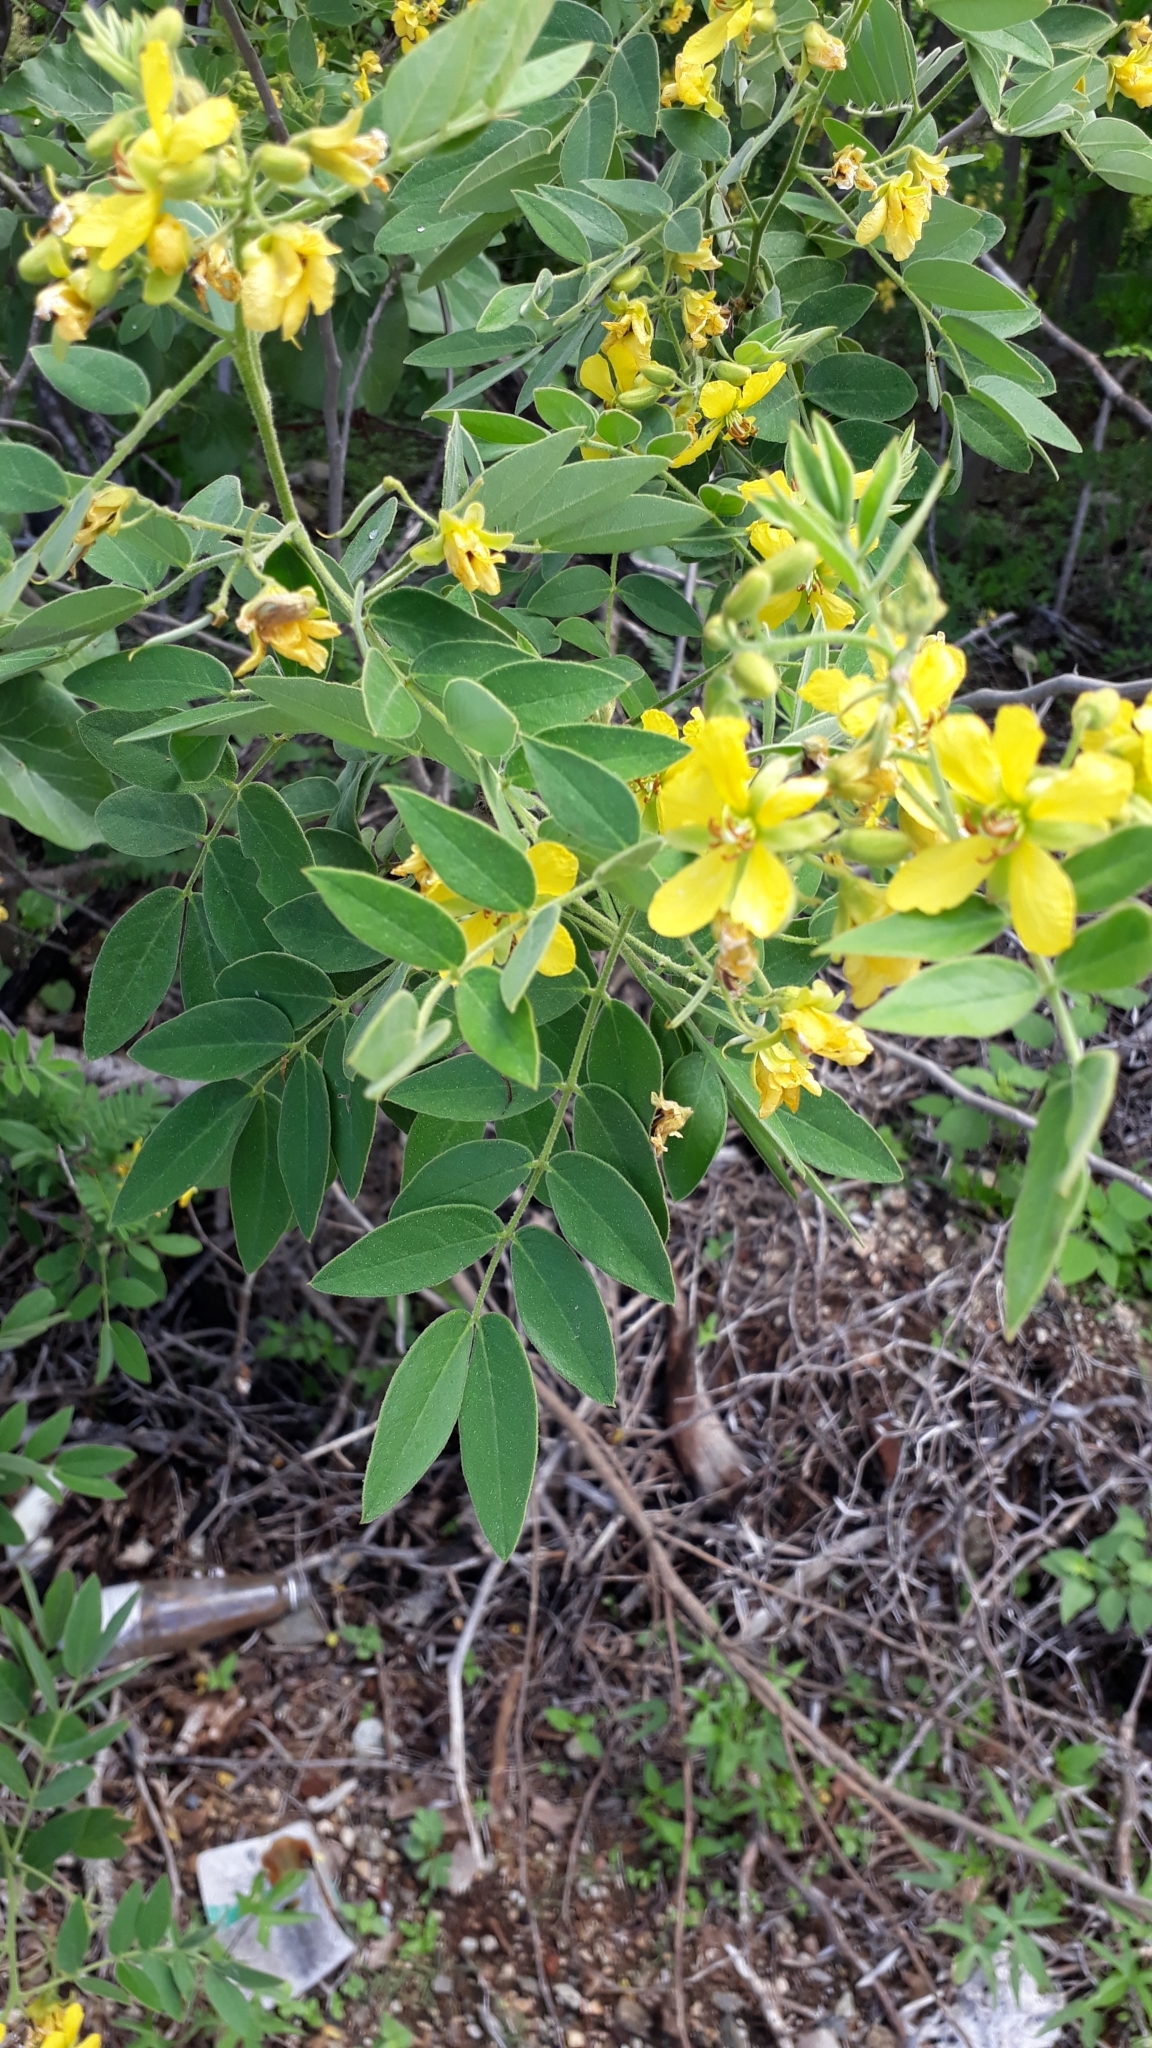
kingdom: Plantae
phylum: Tracheophyta
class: Magnoliopsida
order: Fabales
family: Fabaceae
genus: Senna
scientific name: Senna villosa
